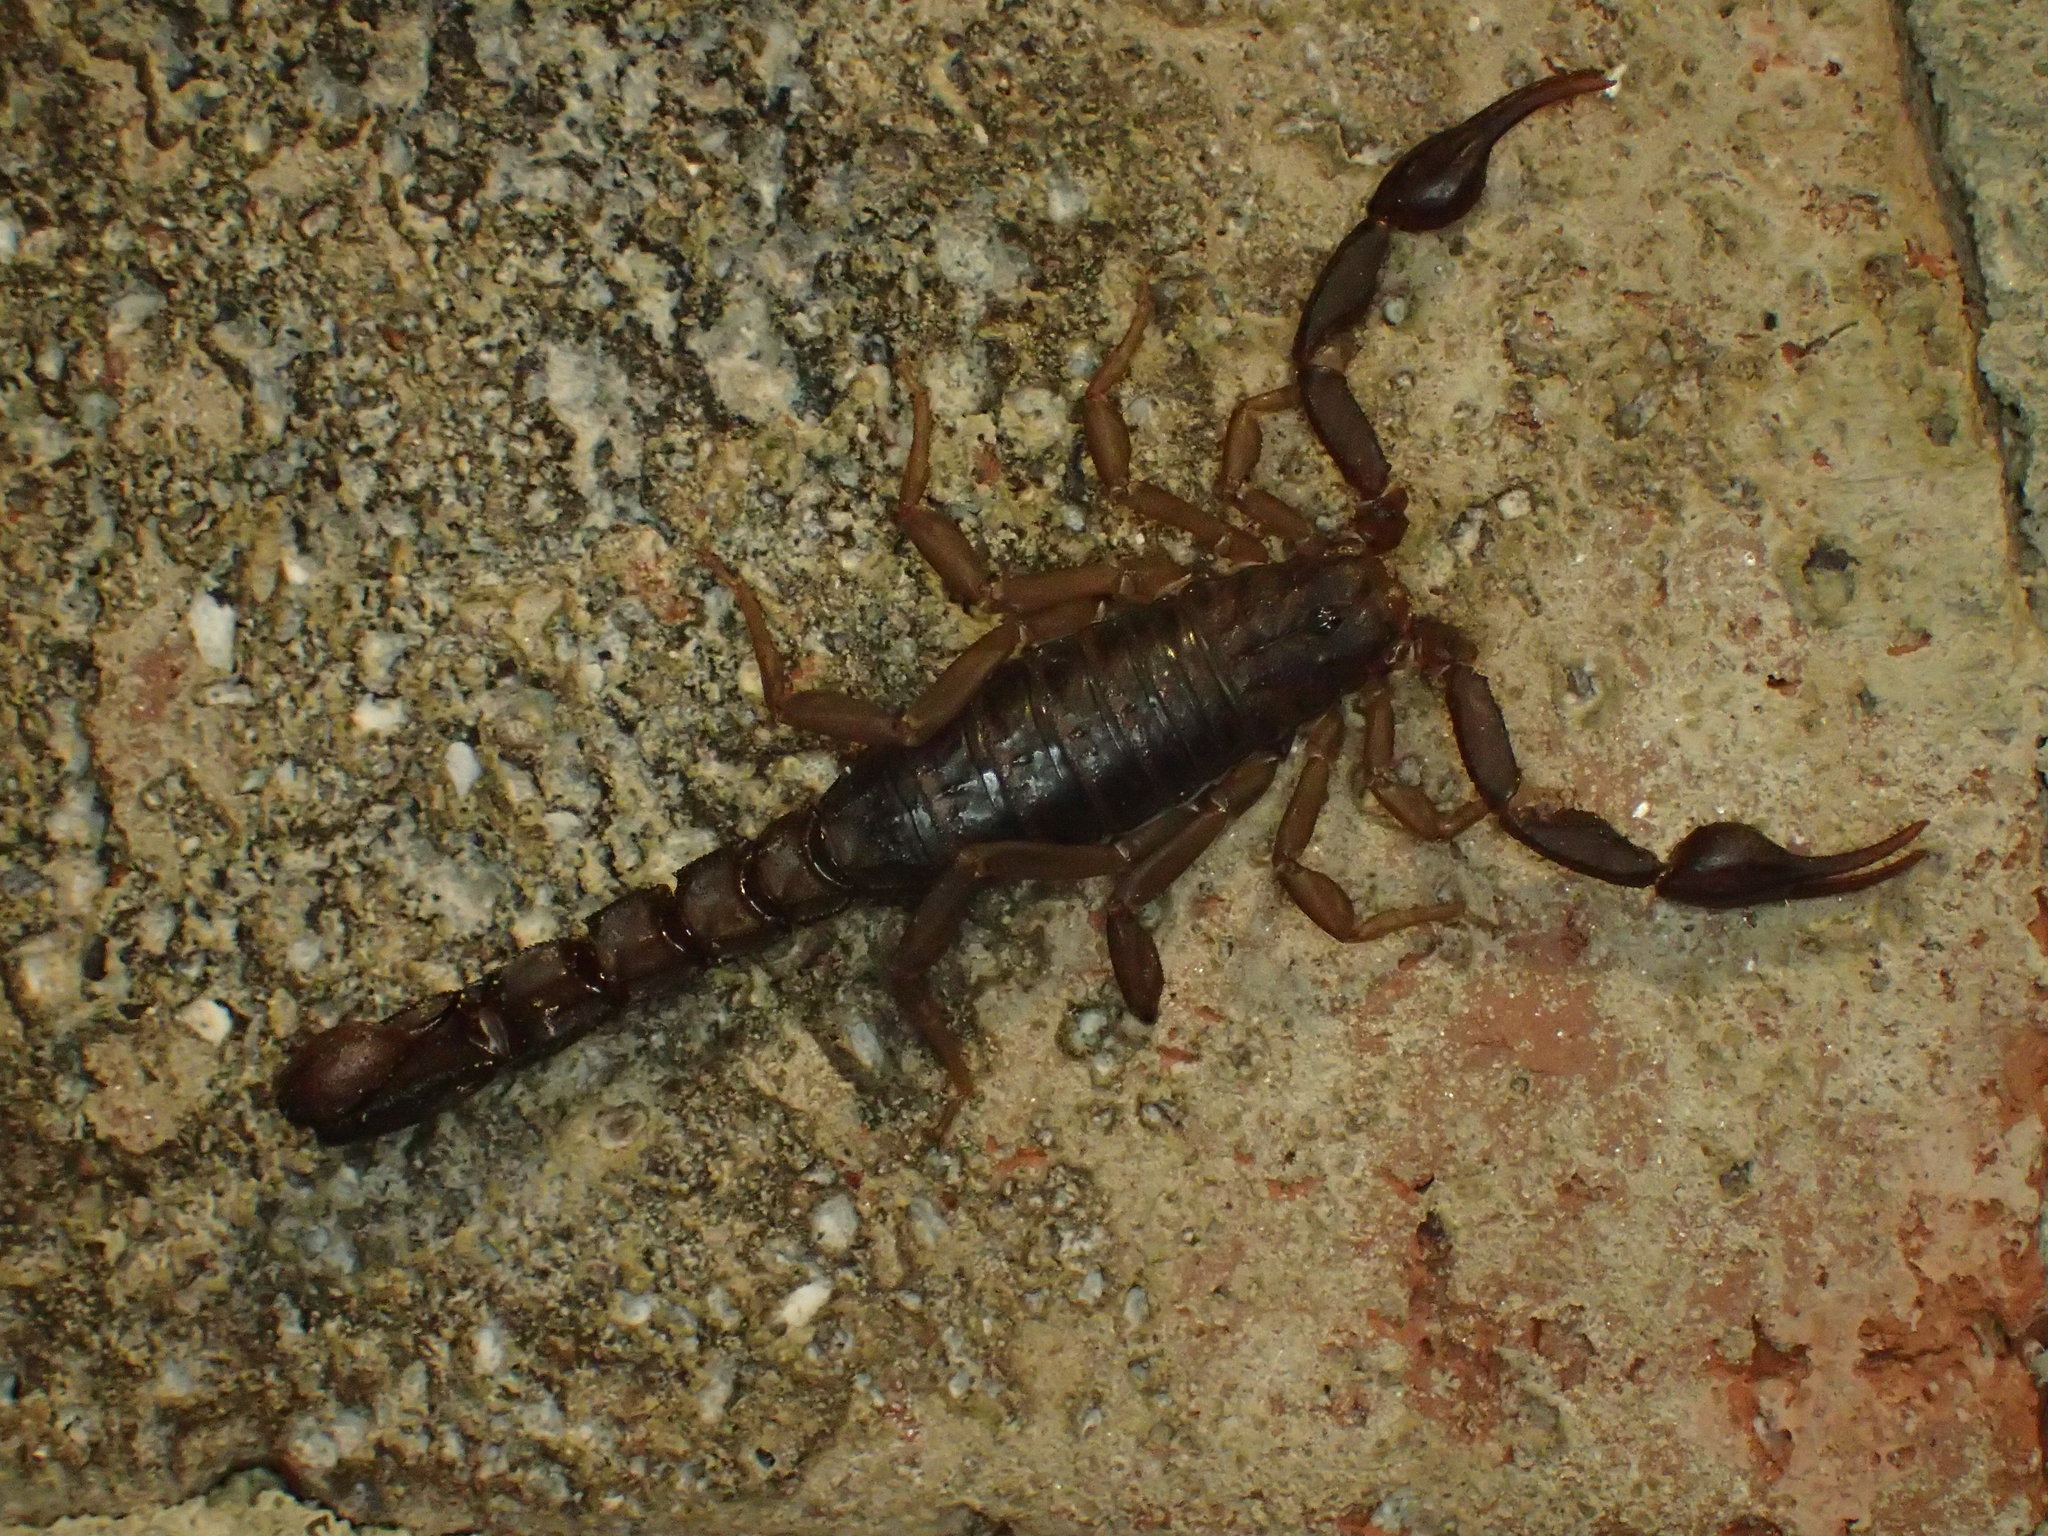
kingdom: Animalia
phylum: Arthropoda
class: Arachnida
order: Scorpiones
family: Vaejovidae
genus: Vaejovis
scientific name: Vaejovis carolinianus
